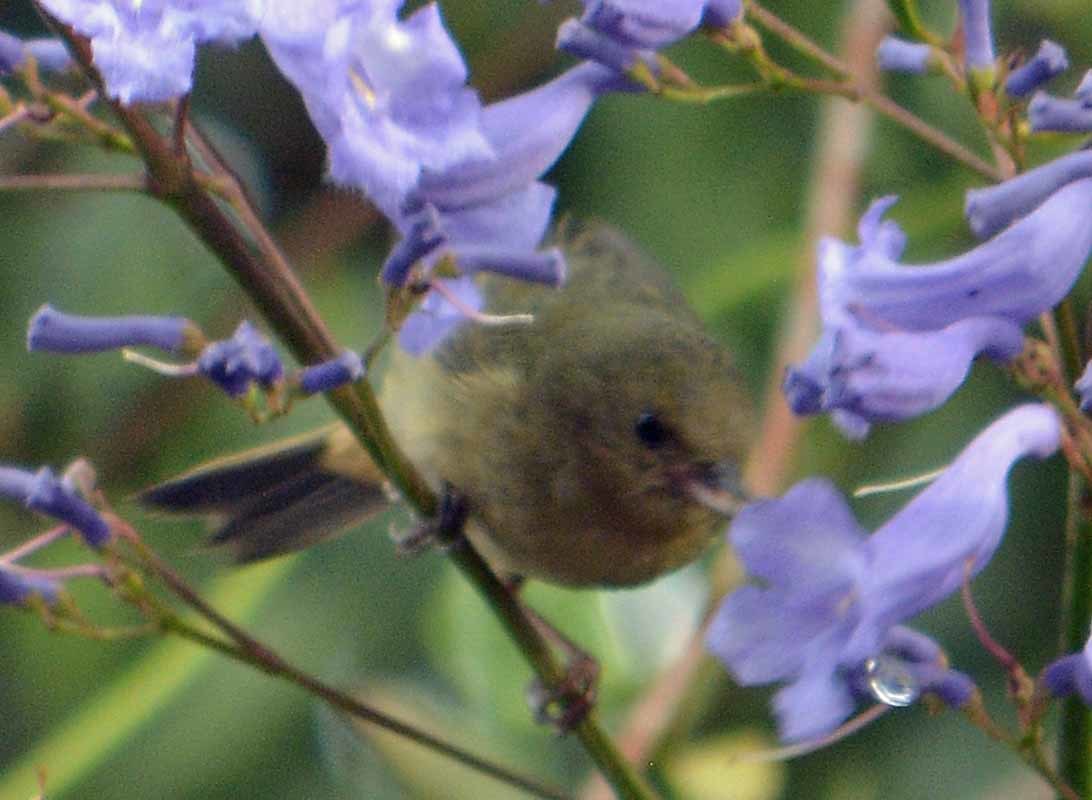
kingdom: Animalia
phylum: Chordata
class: Aves
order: Passeriformes
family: Thraupidae
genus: Diglossa
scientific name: Diglossa baritula
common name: Cinnamon-bellied flowerpiercer
